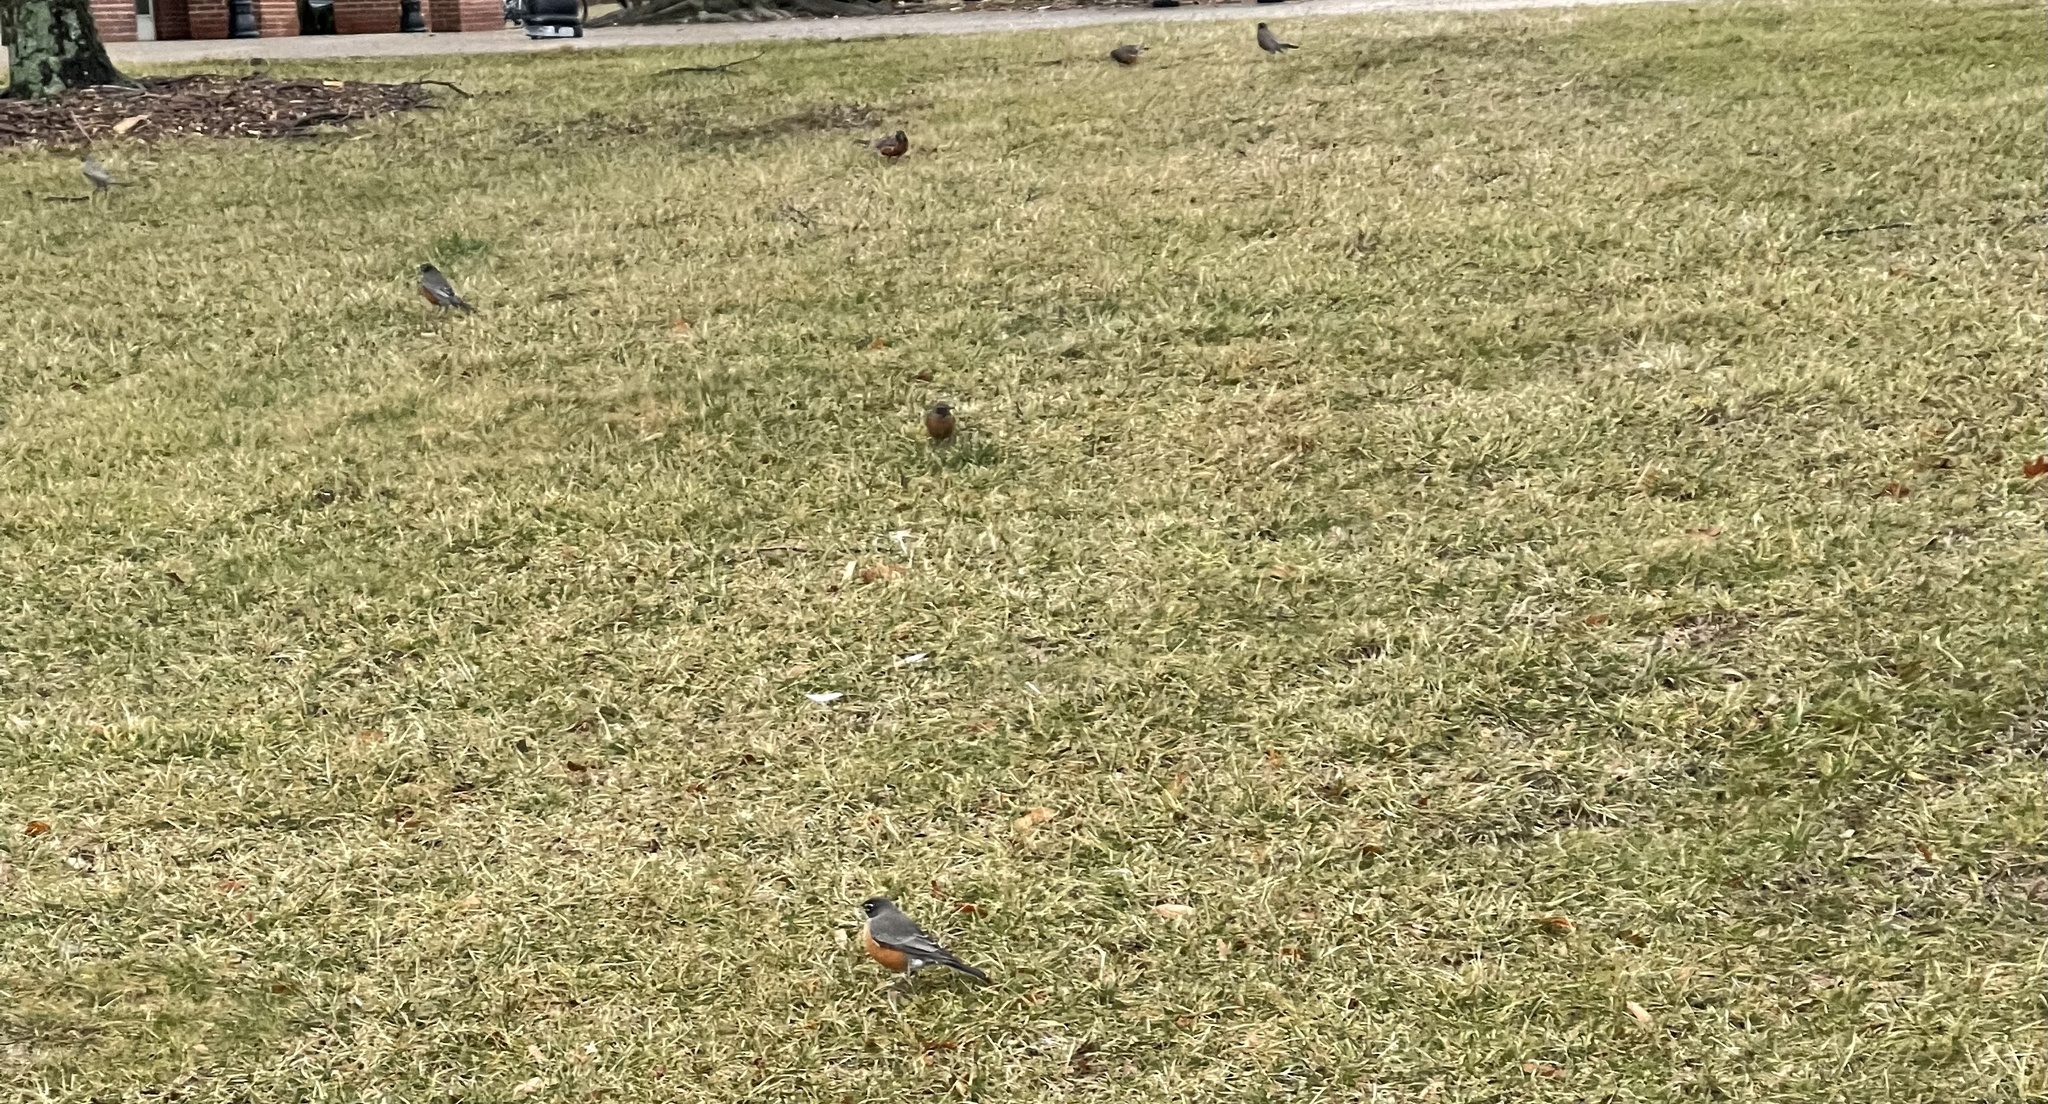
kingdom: Animalia
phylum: Chordata
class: Aves
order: Passeriformes
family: Turdidae
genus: Turdus
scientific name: Turdus migratorius
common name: American robin
